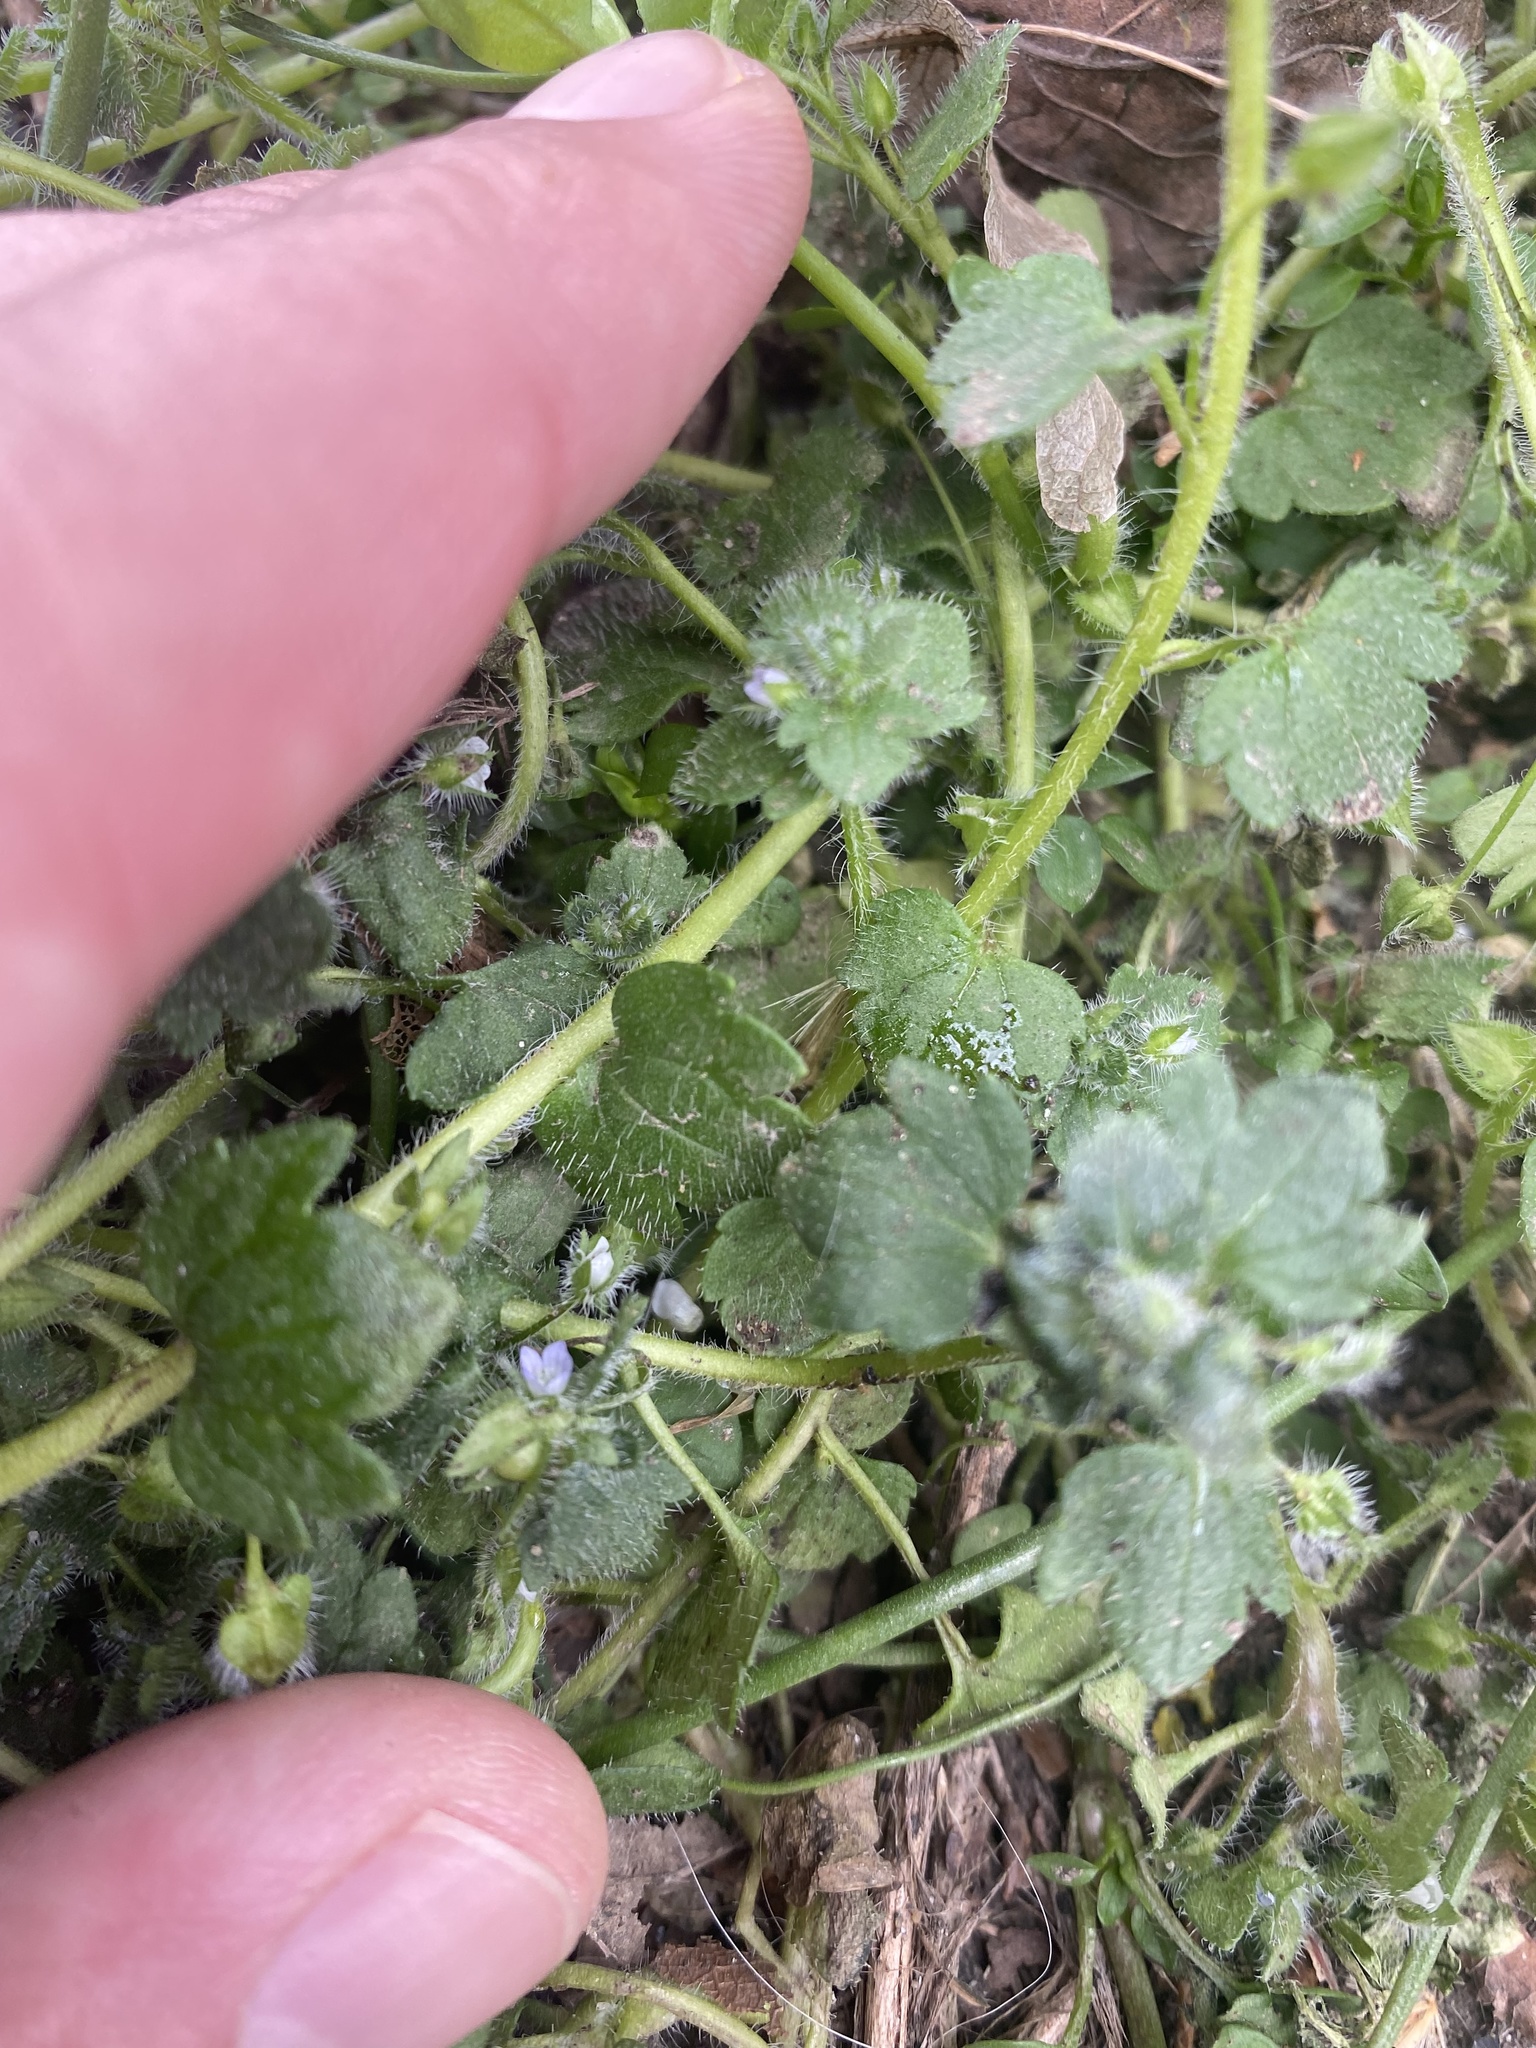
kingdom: Plantae
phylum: Tracheophyta
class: Magnoliopsida
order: Lamiales
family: Plantaginaceae
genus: Veronica
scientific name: Veronica hederifolia
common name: Ivy-leaved speedwell
